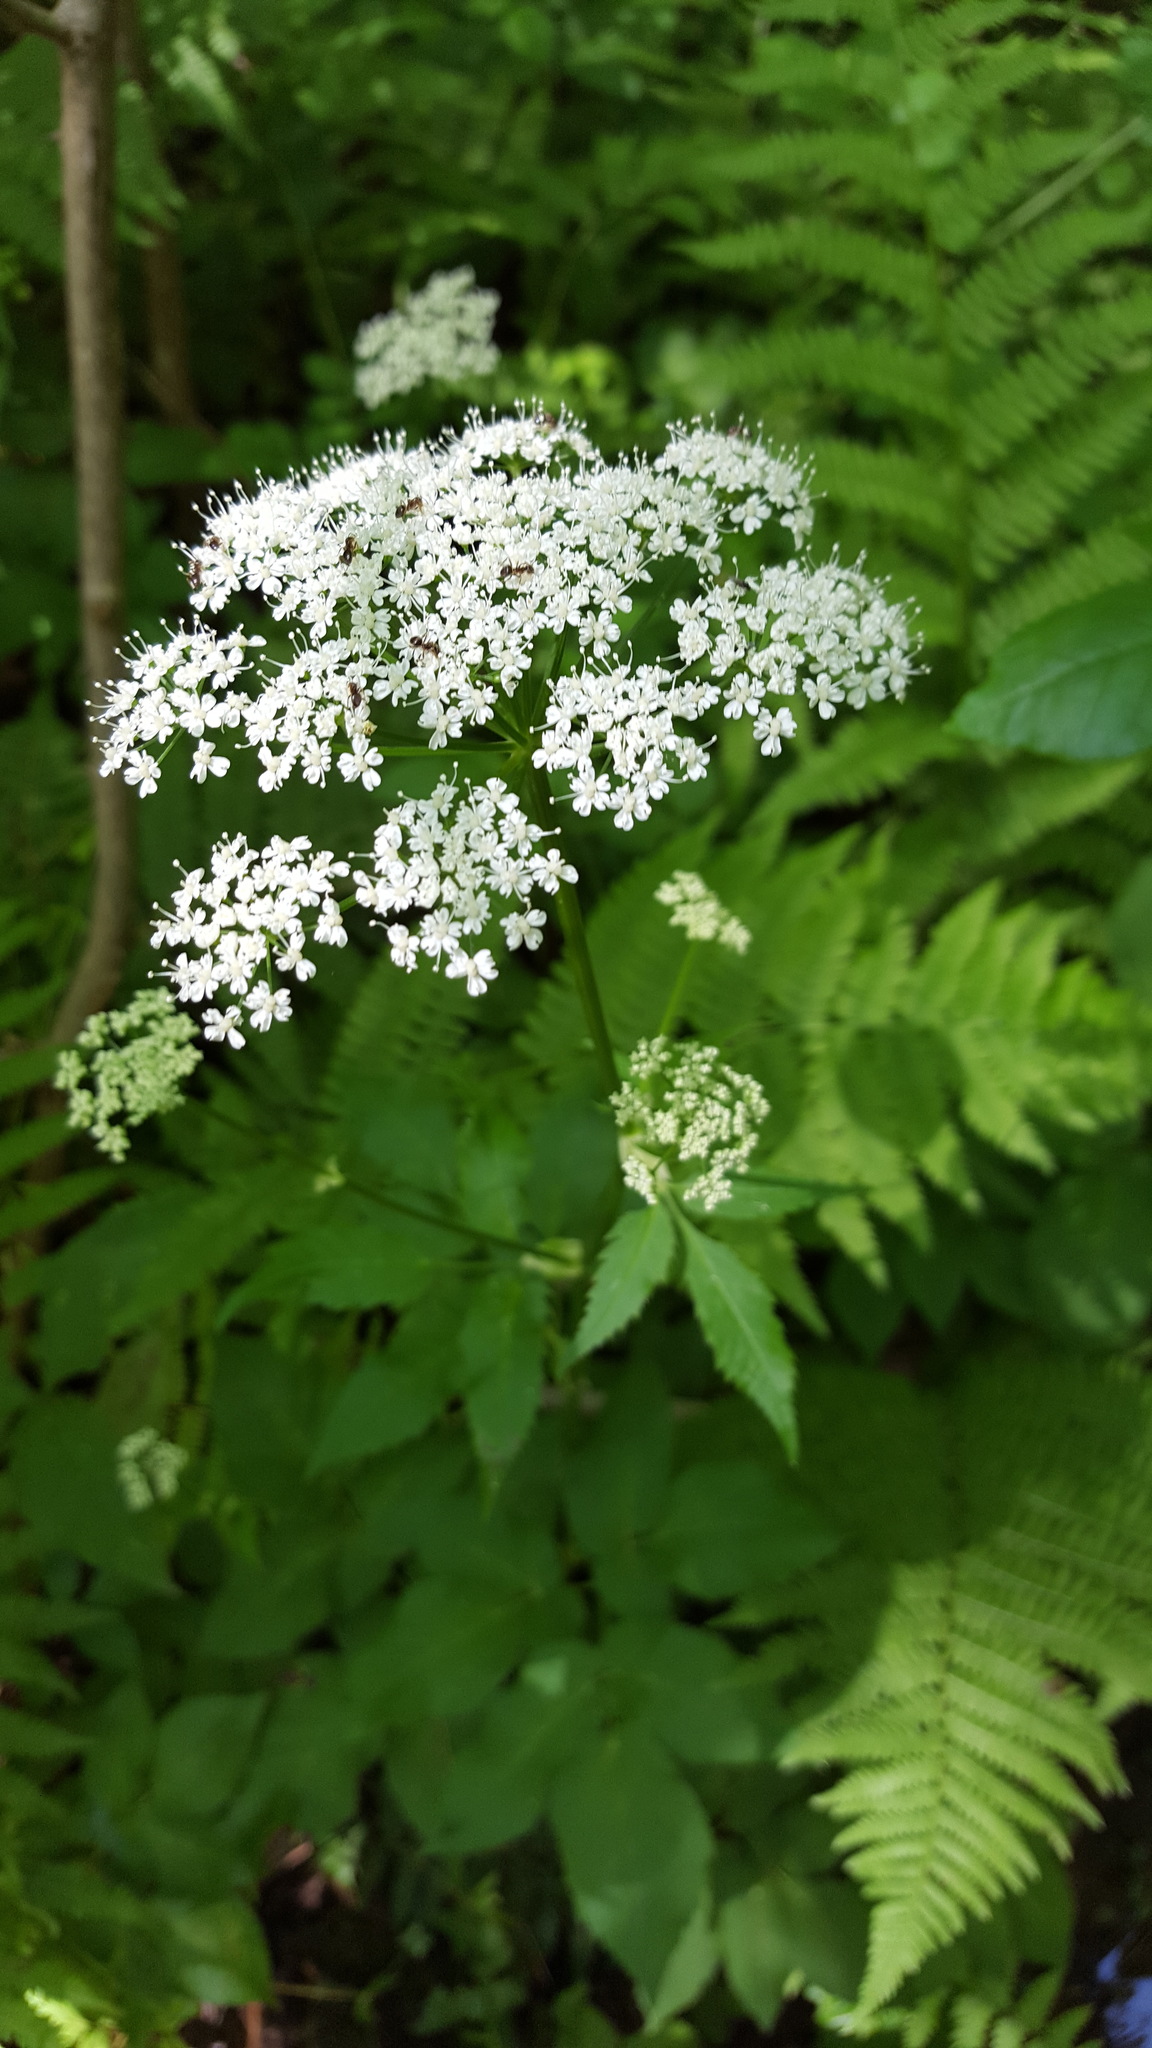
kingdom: Plantae
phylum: Tracheophyta
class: Magnoliopsida
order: Apiales
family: Apiaceae
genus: Aegopodium
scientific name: Aegopodium podagraria
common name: Ground-elder
